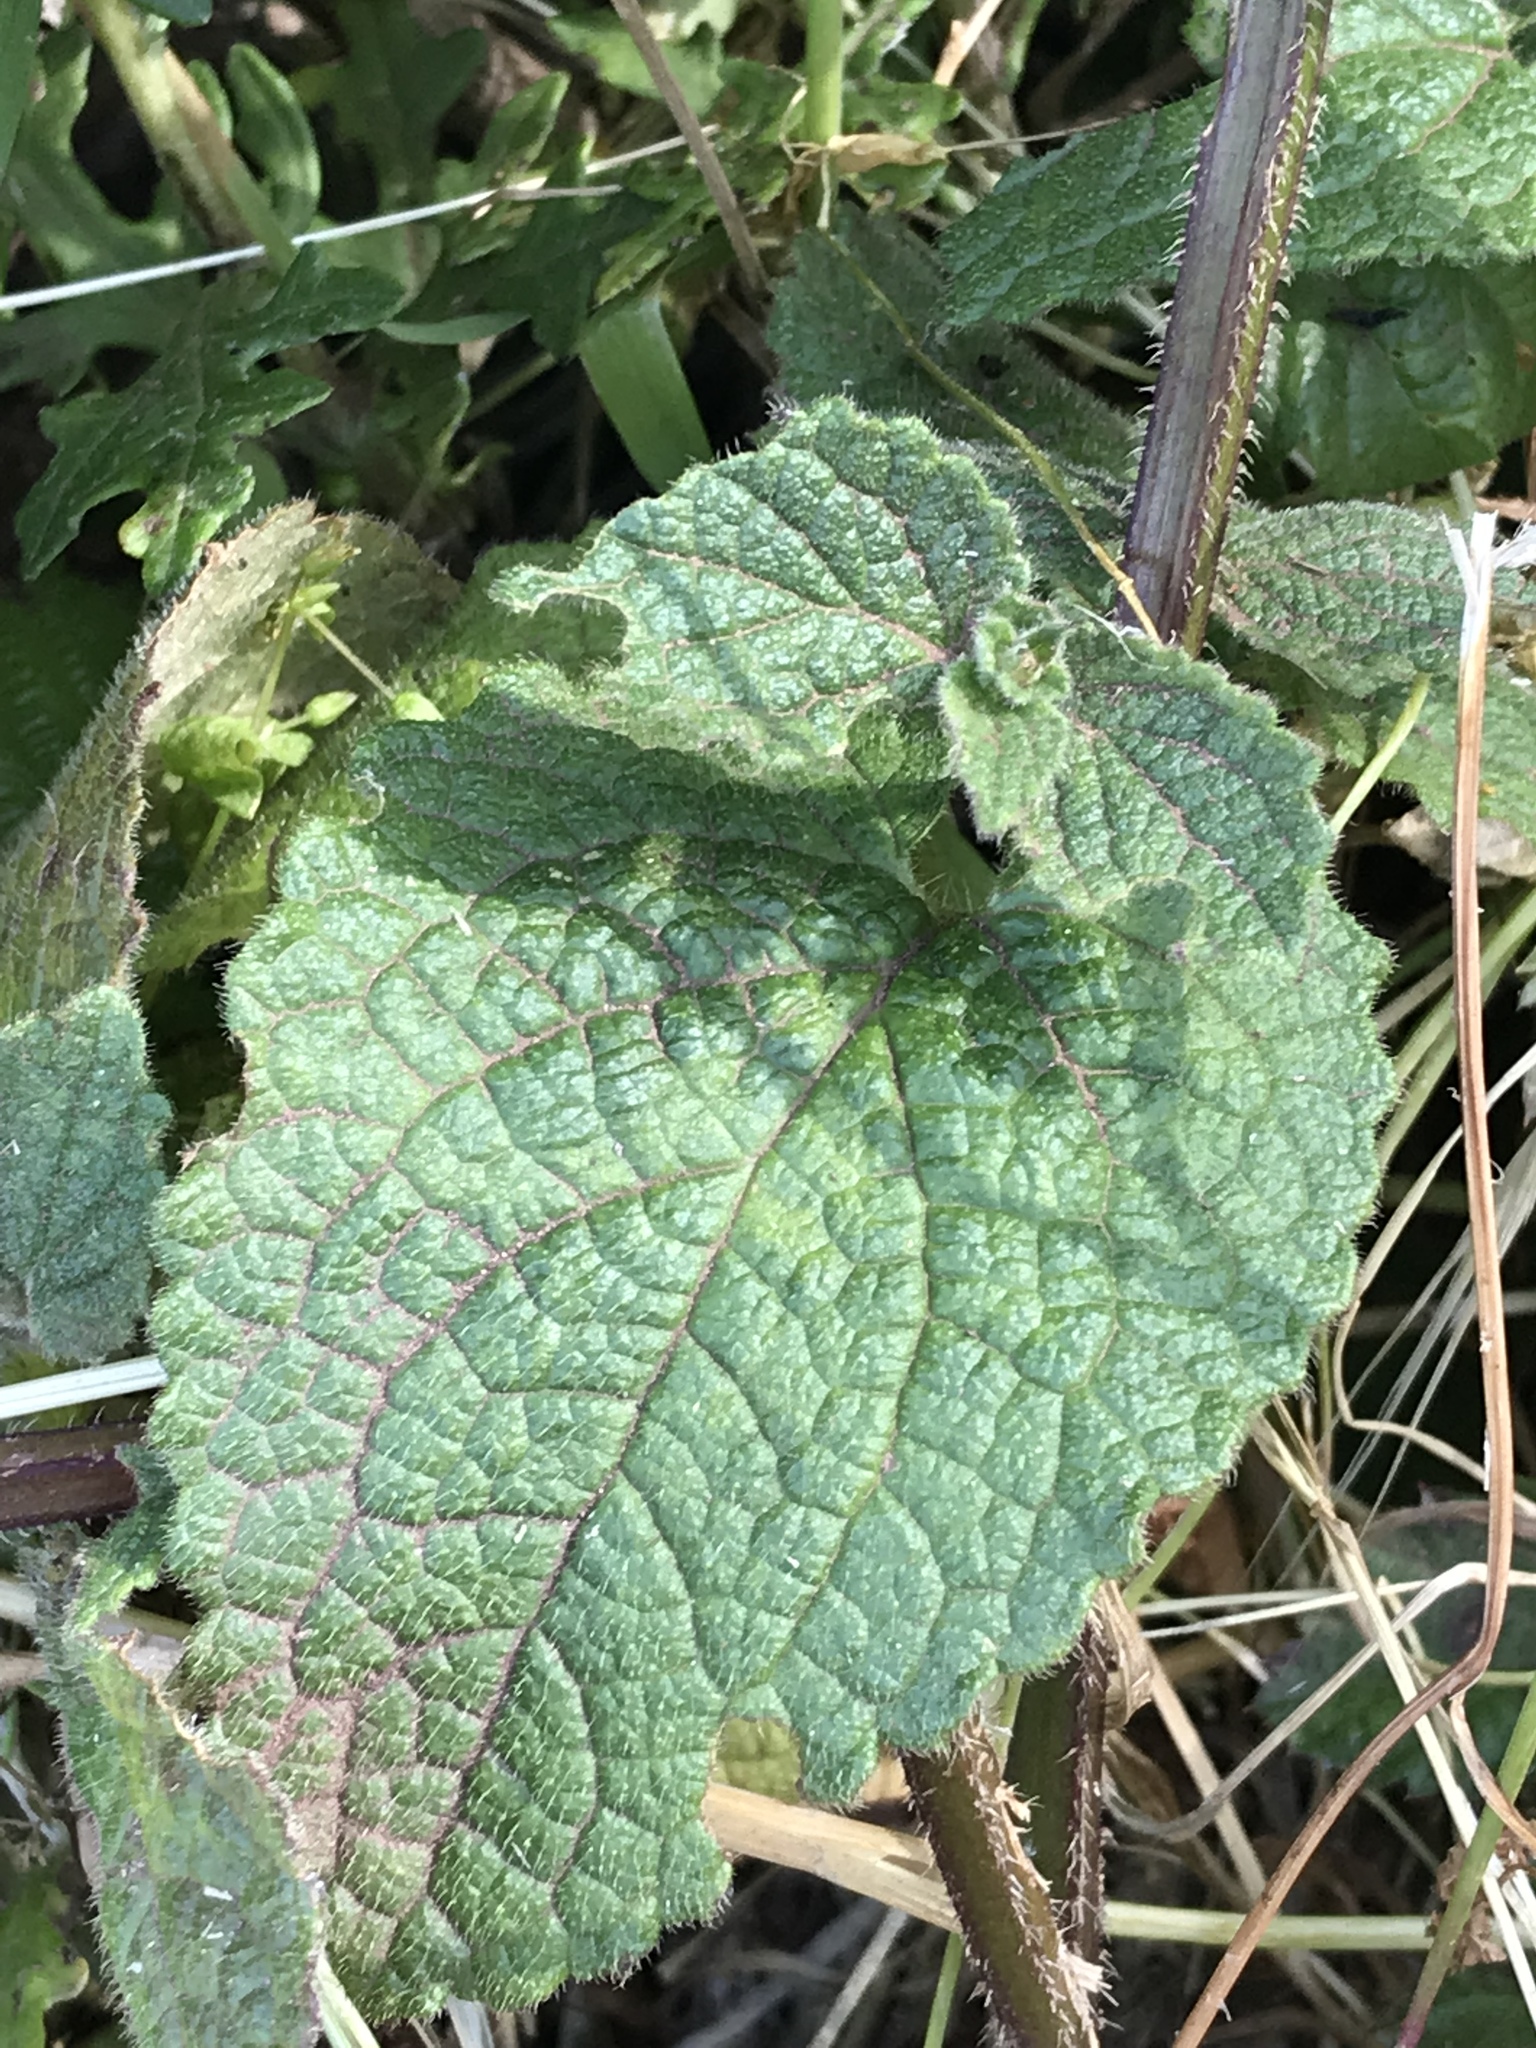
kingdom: Plantae
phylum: Tracheophyta
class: Magnoliopsida
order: Lamiales
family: Lamiaceae
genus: Stachys
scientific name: Stachys bullata
